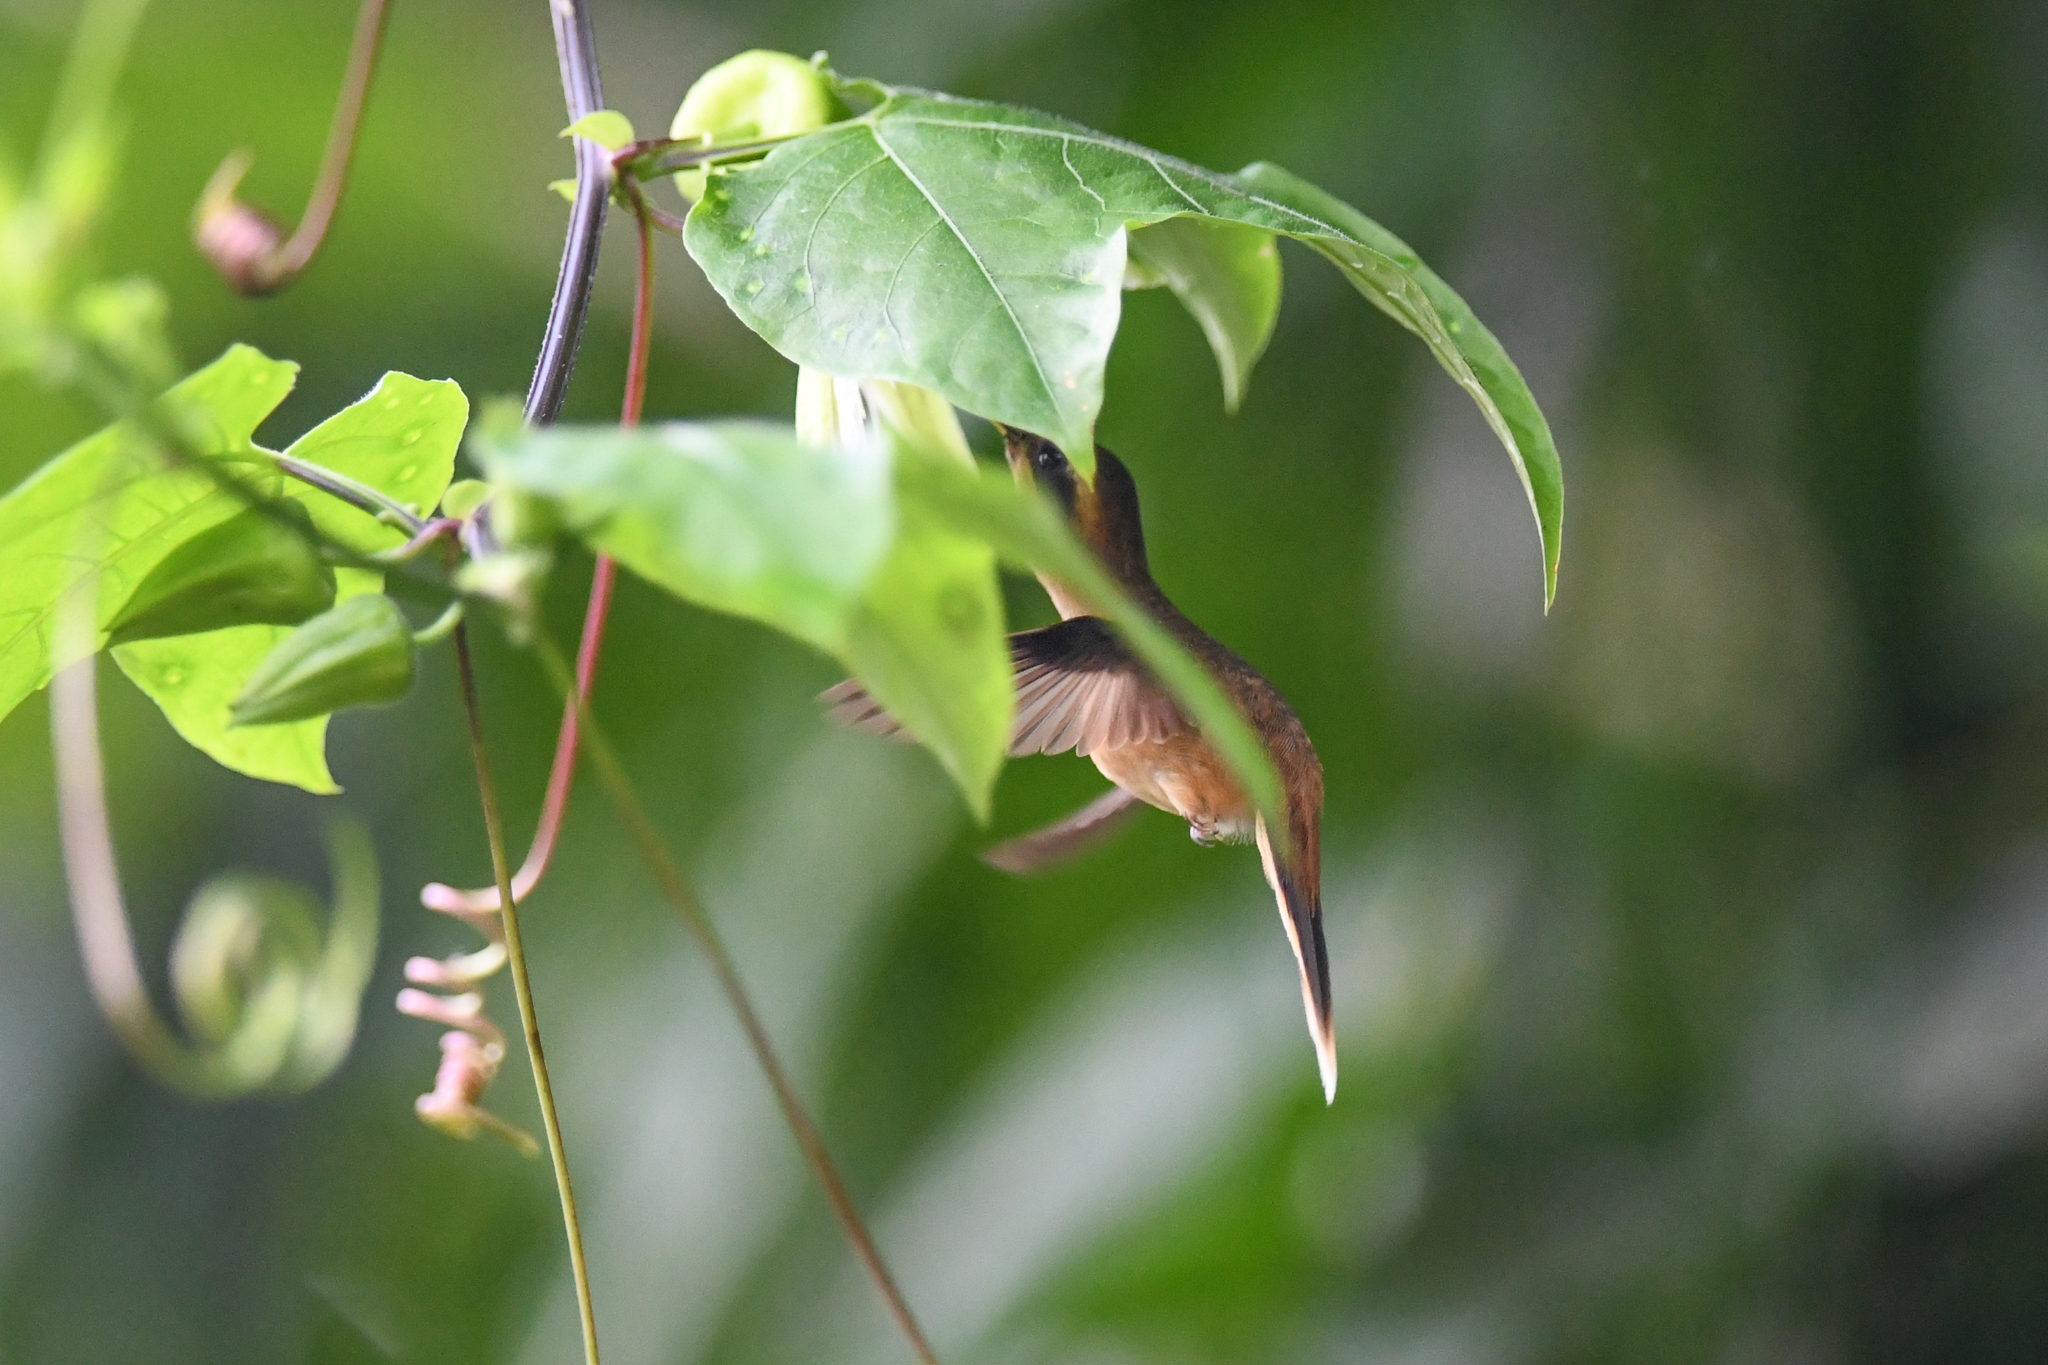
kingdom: Animalia
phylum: Chordata
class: Aves
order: Apodiformes
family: Trochilidae
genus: Phaethornis
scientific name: Phaethornis striigularis
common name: Stripe-throated hermit
